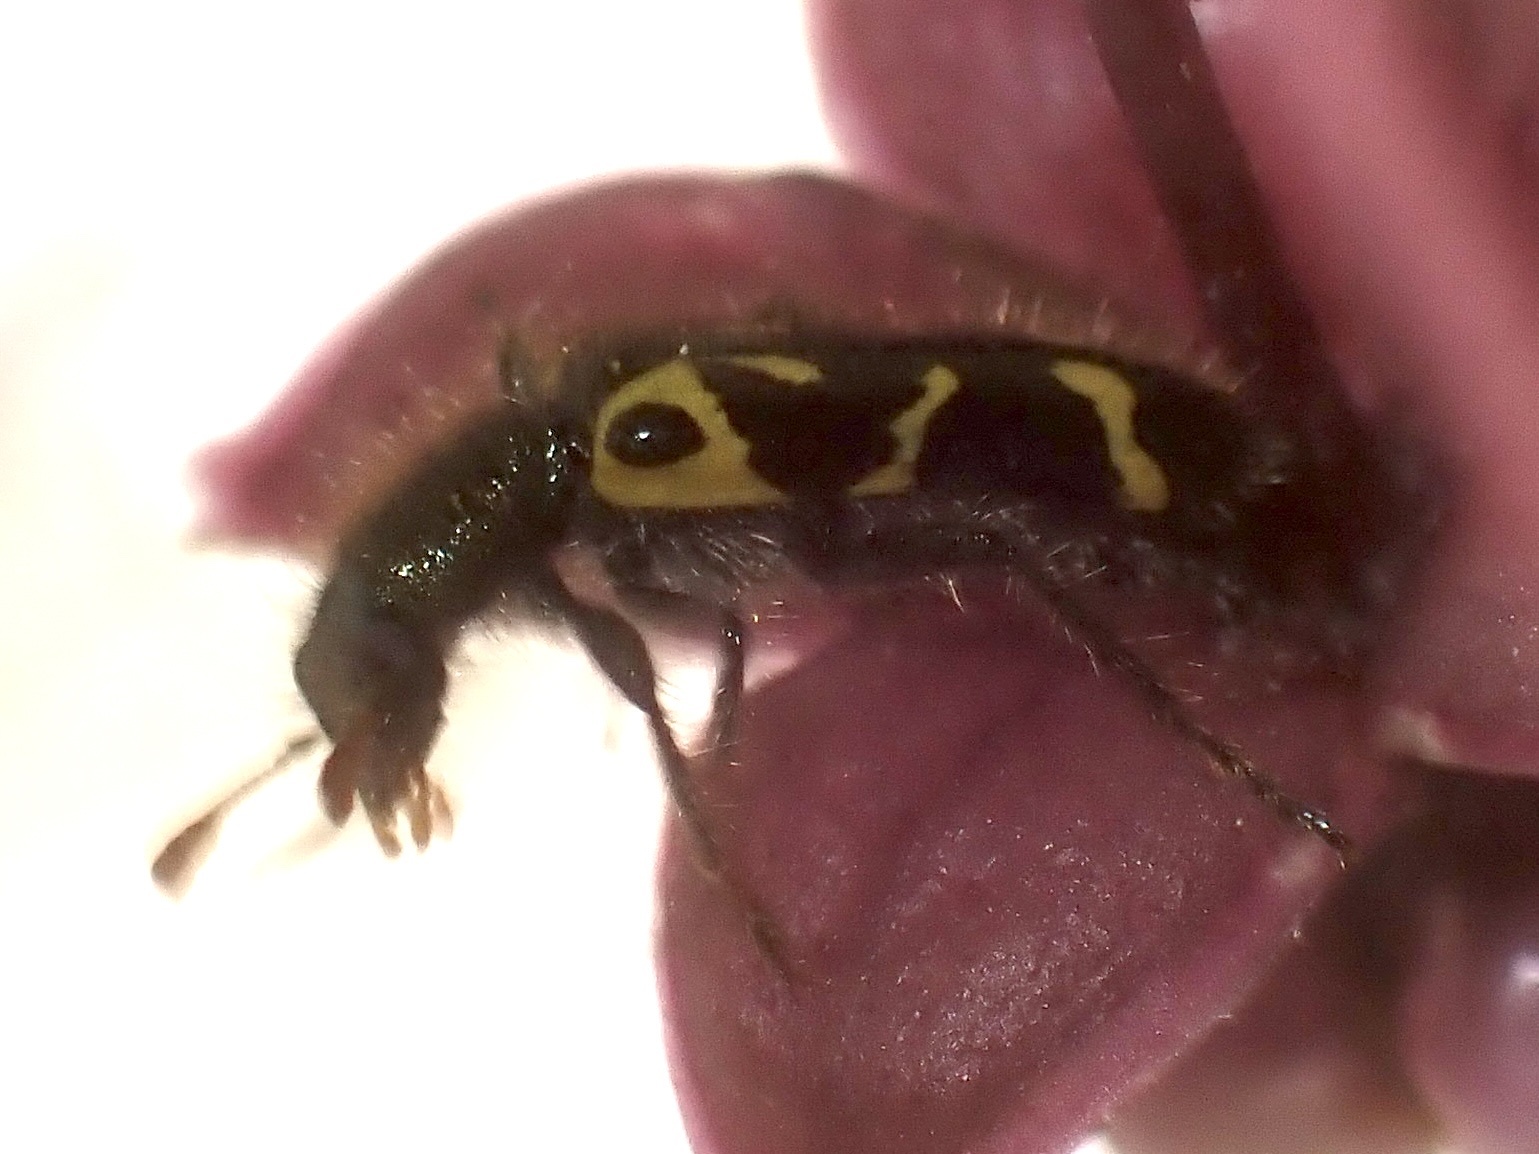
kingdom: Animalia
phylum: Arthropoda
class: Insecta
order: Coleoptera
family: Cleridae
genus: Trichodes
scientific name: Trichodes ornatus
